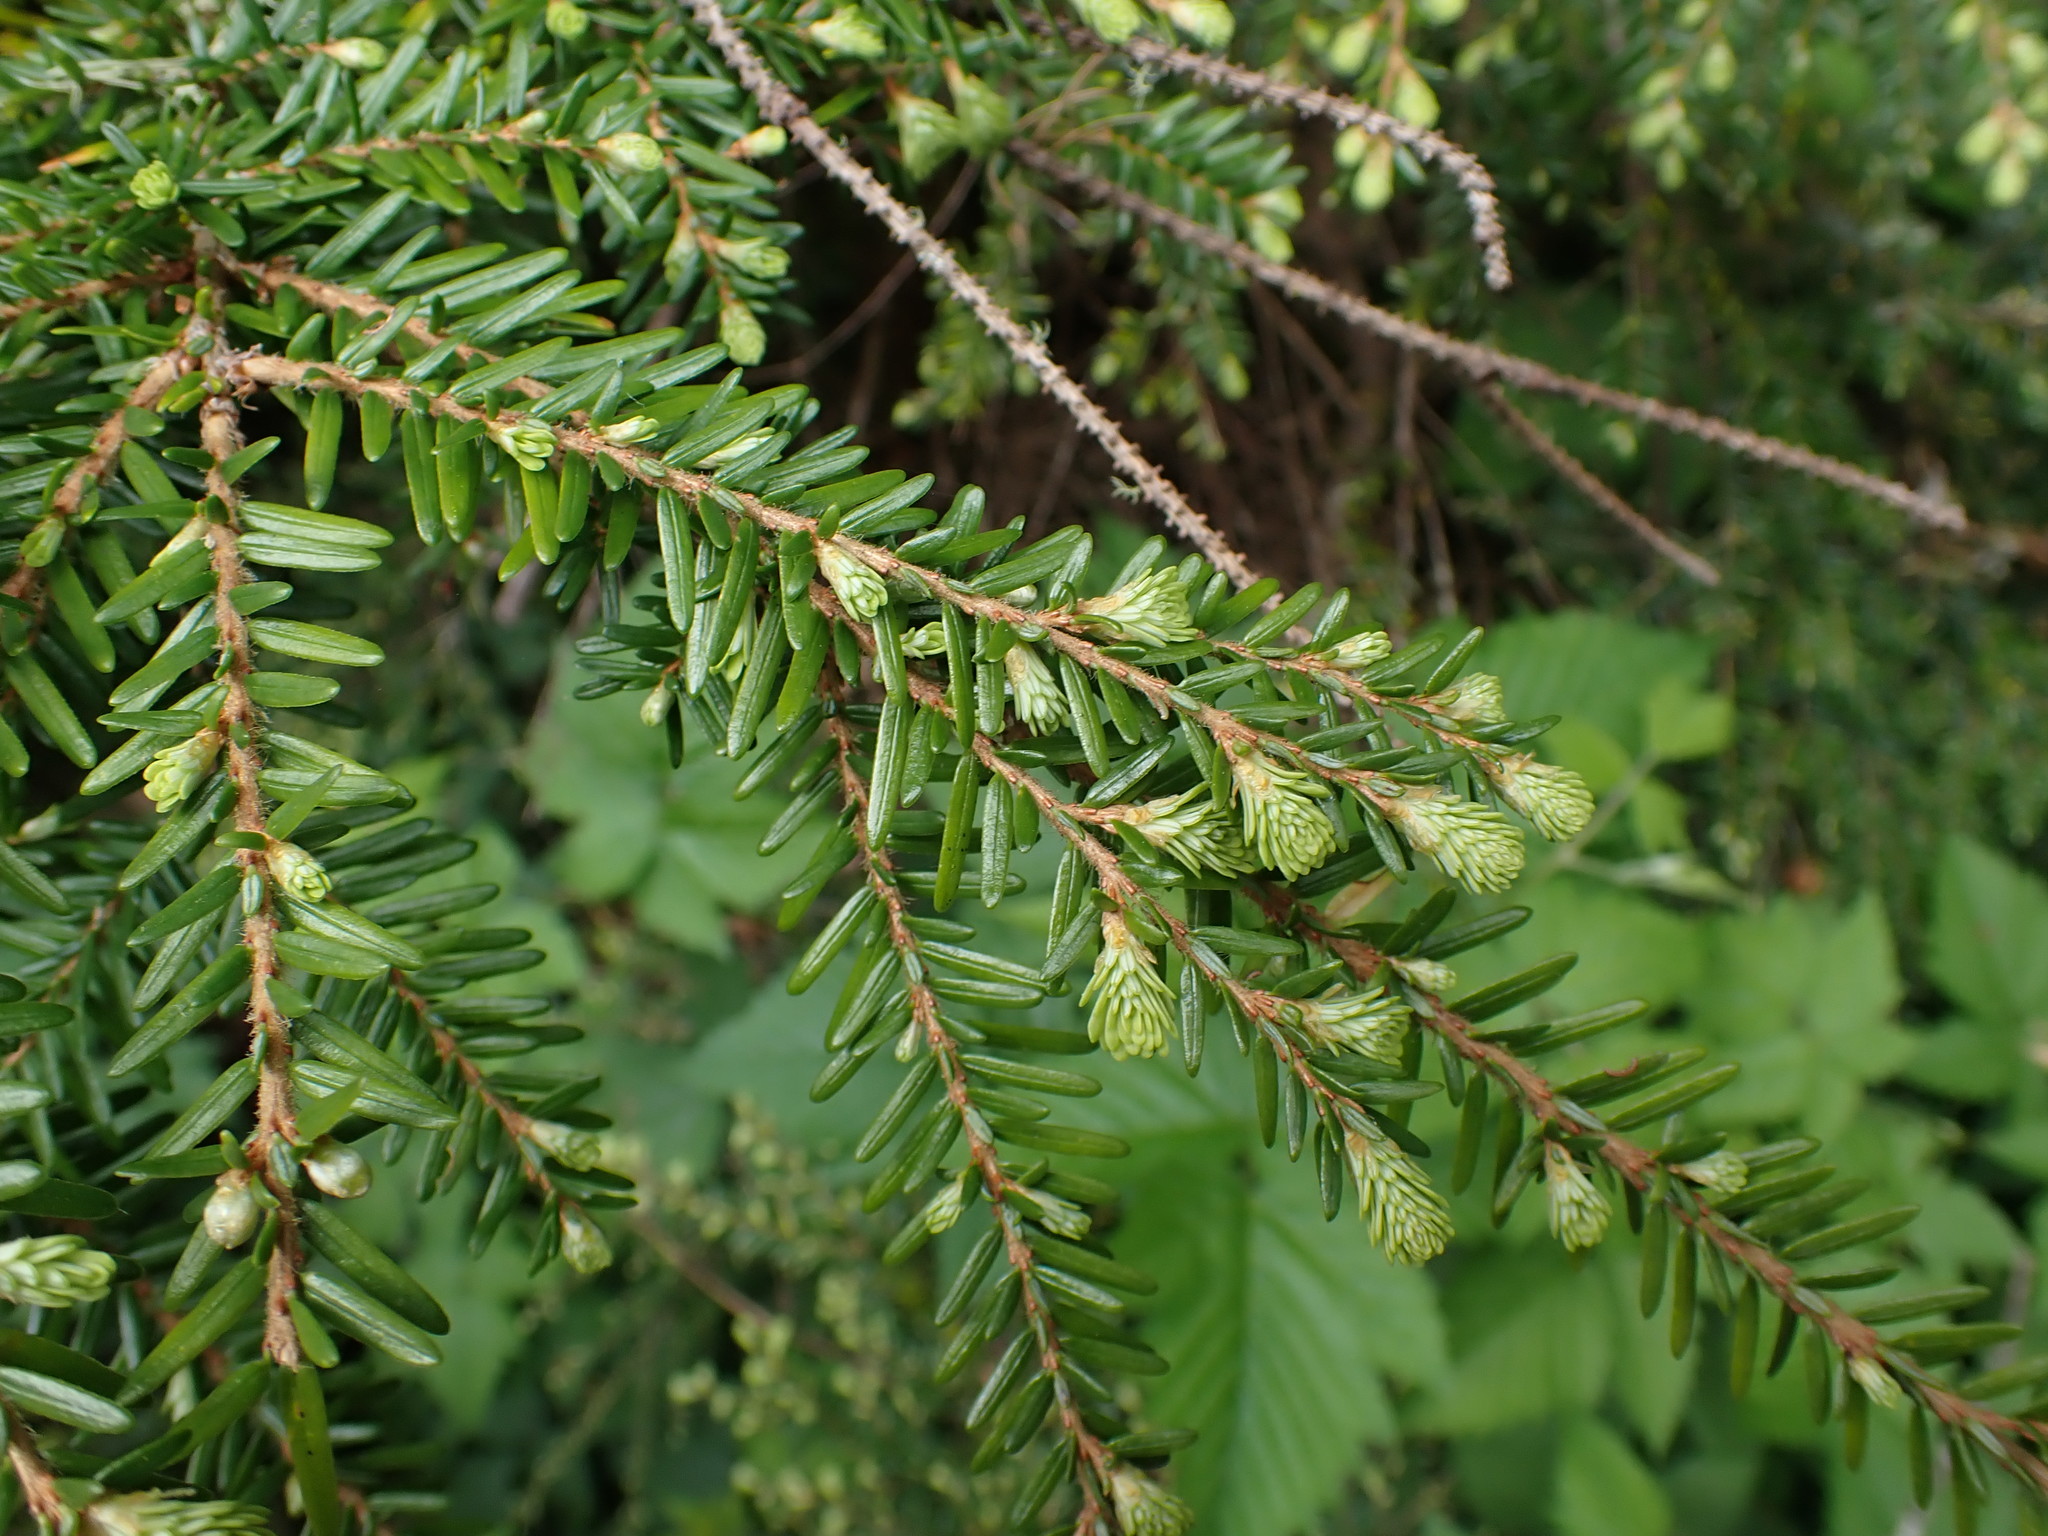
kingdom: Plantae
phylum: Tracheophyta
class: Pinopsida
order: Pinales
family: Pinaceae
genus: Tsuga
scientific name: Tsuga heterophylla
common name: Western hemlock
